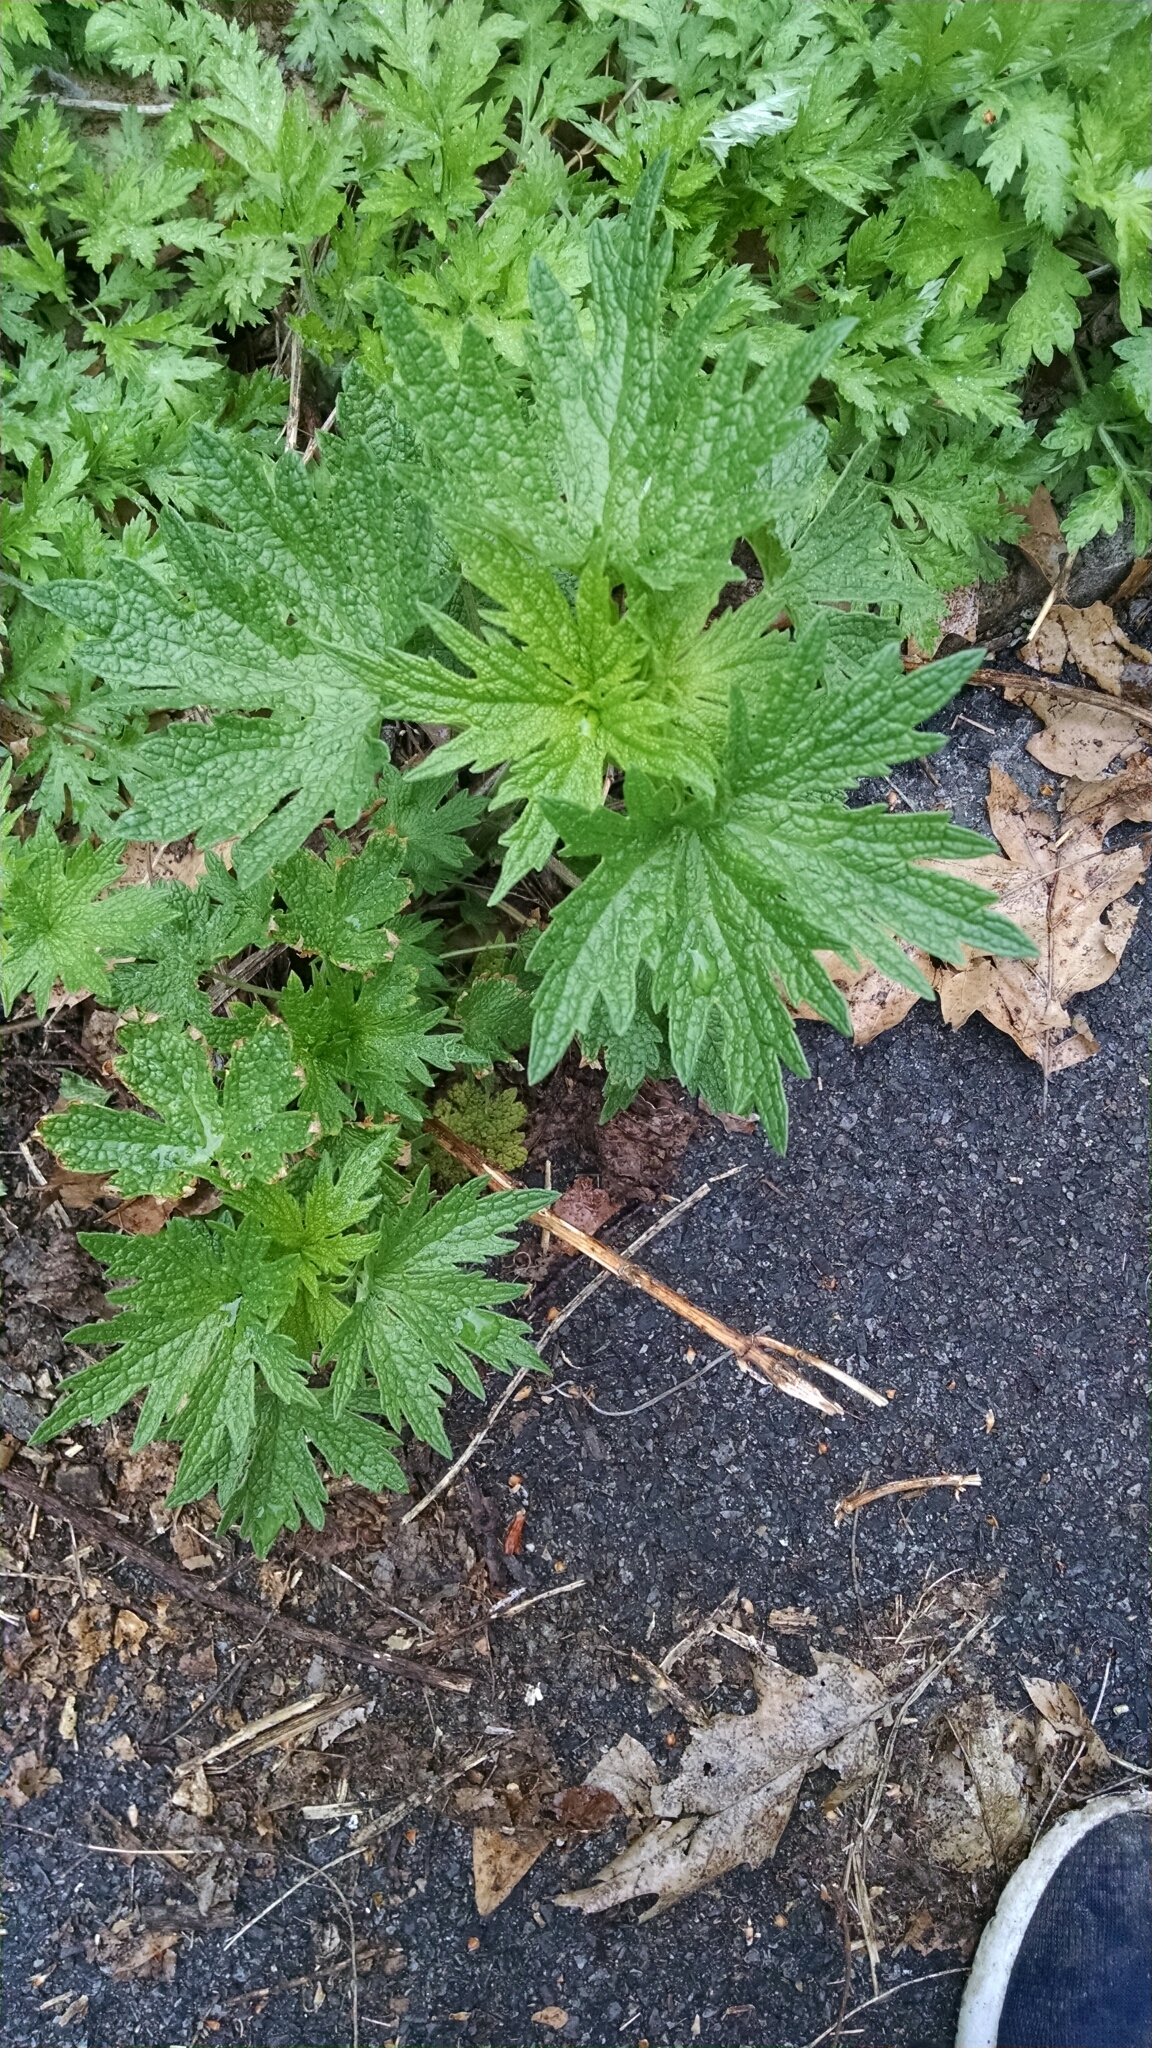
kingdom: Plantae
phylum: Tracheophyta
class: Magnoliopsida
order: Lamiales
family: Lamiaceae
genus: Leonurus
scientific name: Leonurus cardiaca
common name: Motherwort
